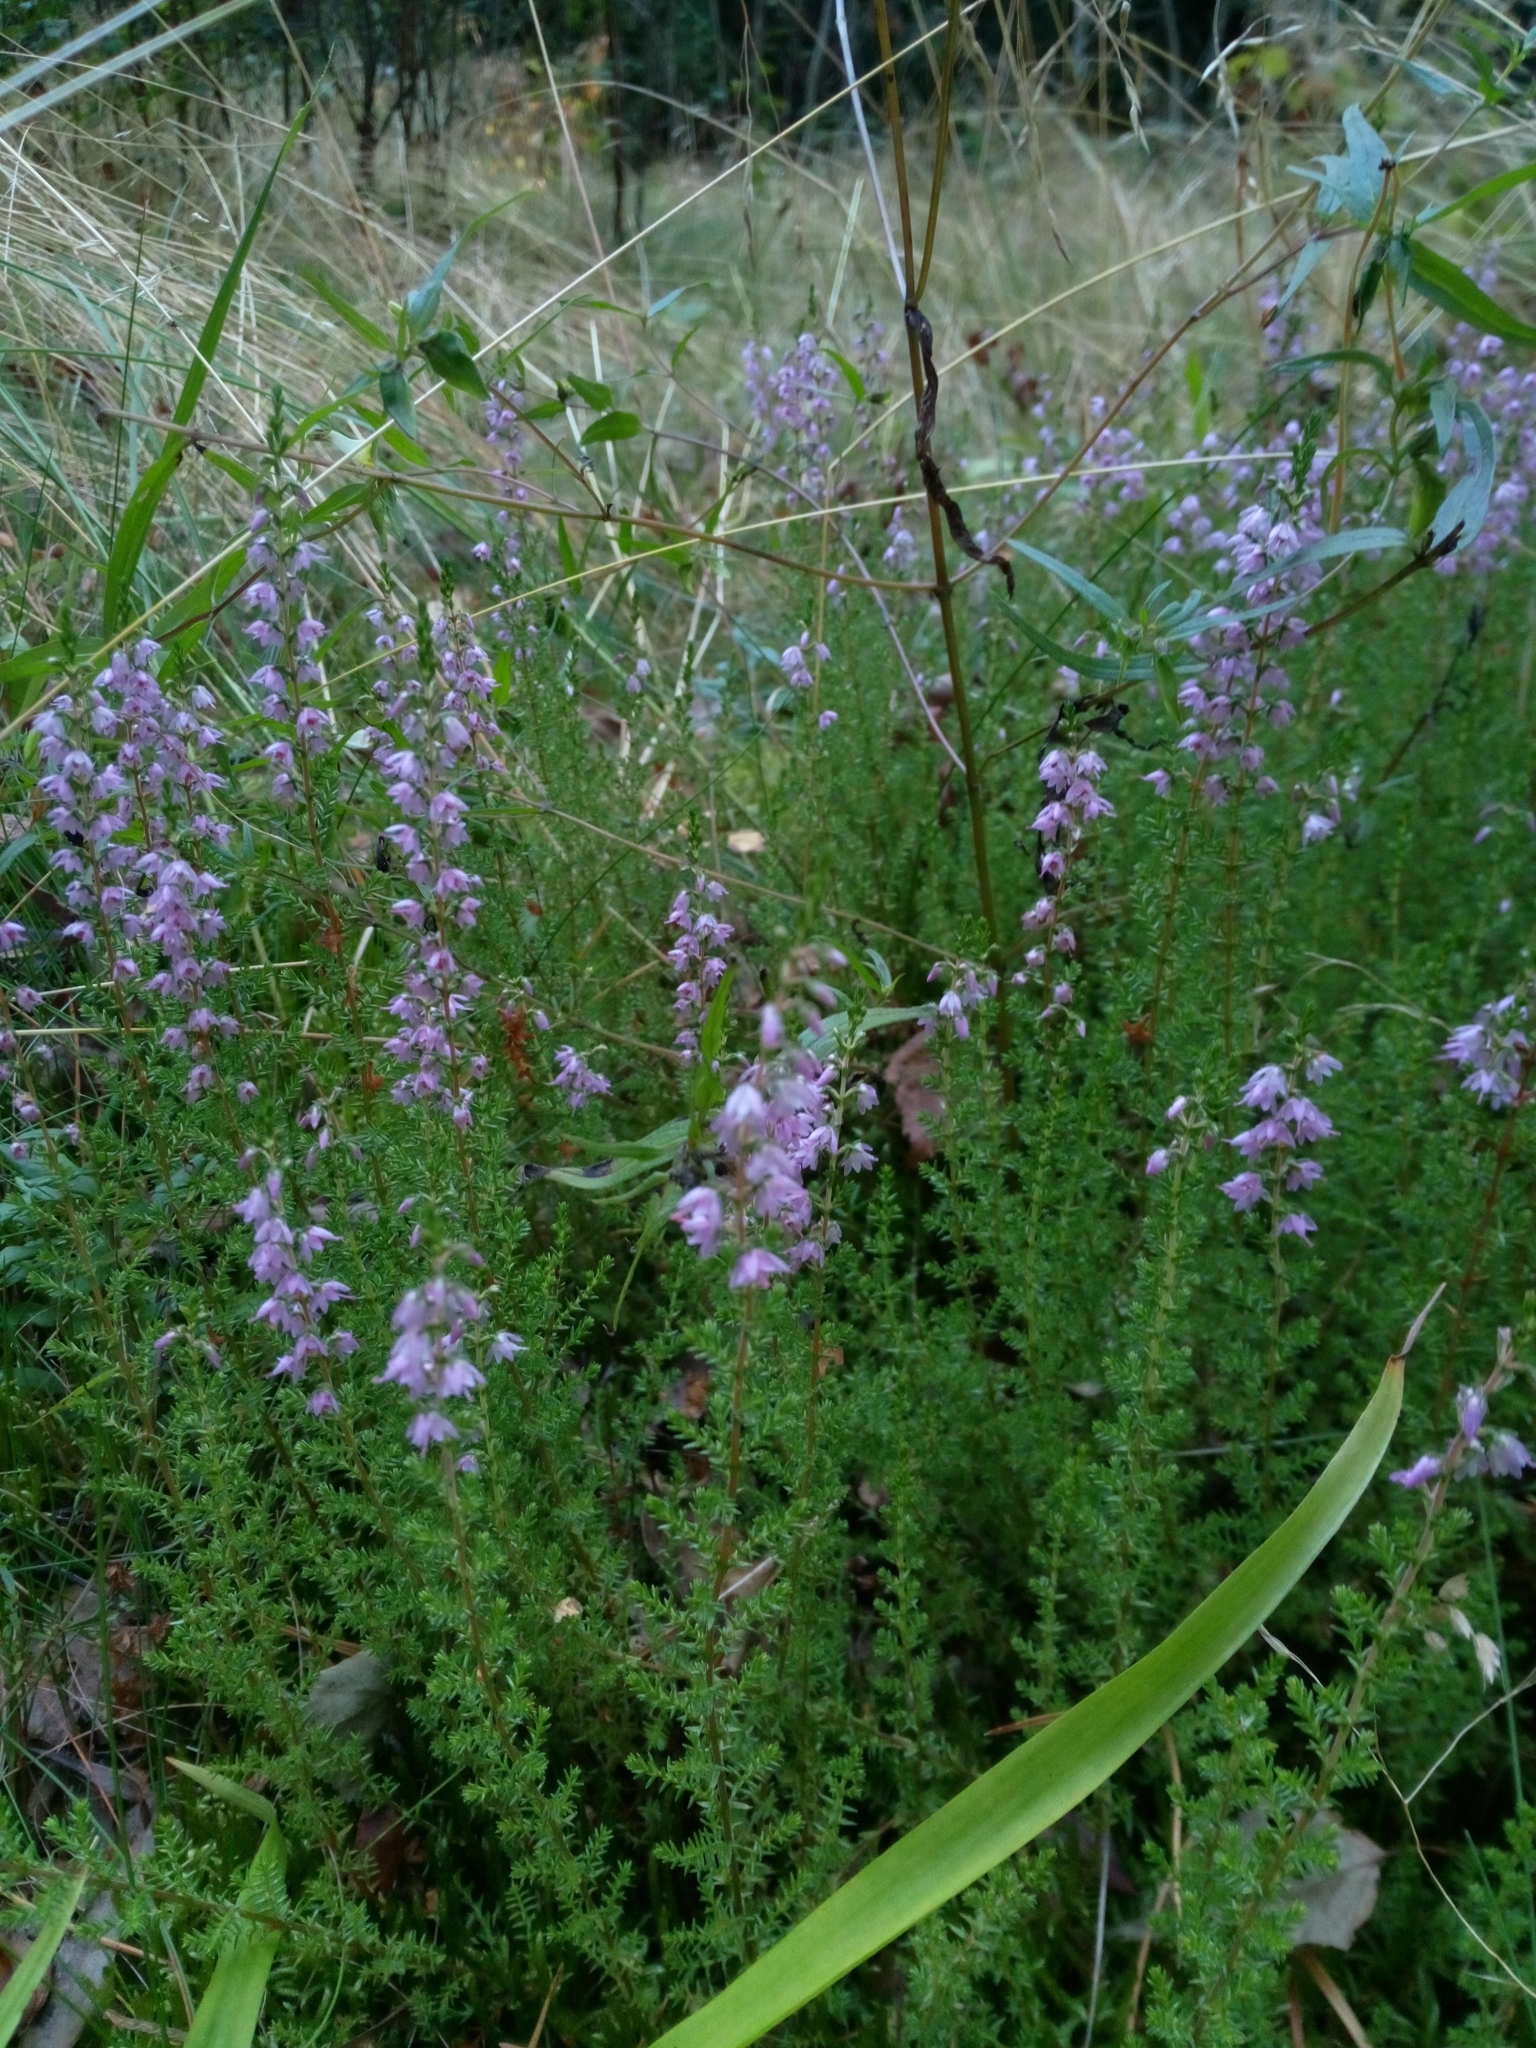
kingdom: Plantae
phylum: Tracheophyta
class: Magnoliopsida
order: Ericales
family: Ericaceae
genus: Calluna
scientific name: Calluna vulgaris
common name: Heather
